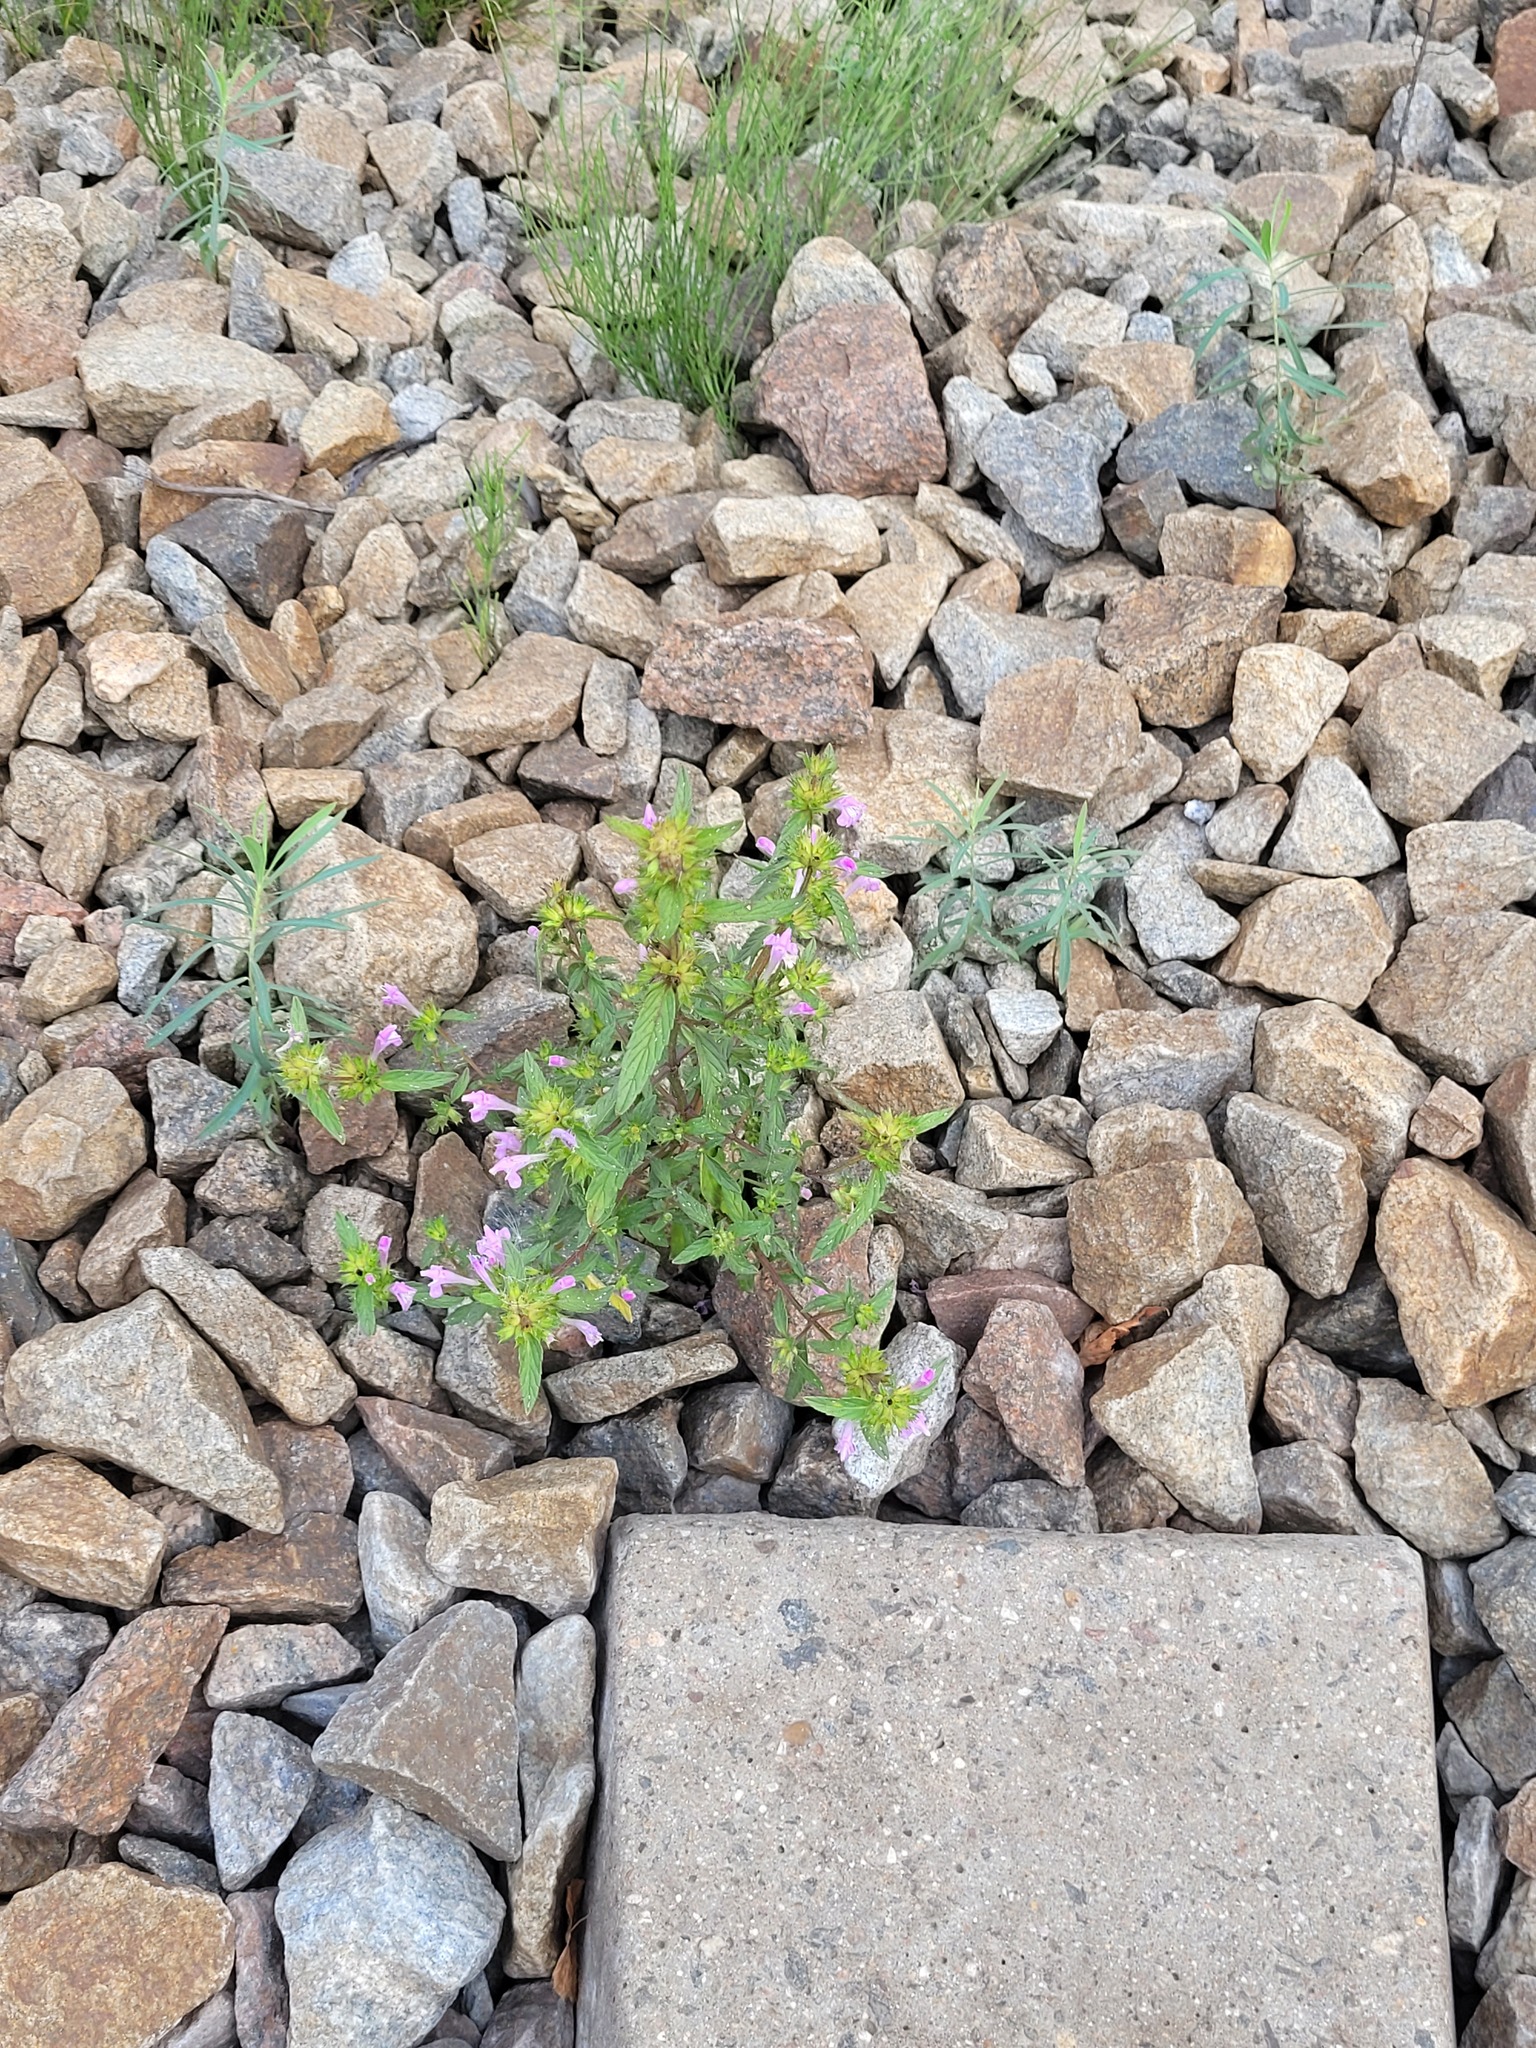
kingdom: Plantae
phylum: Tracheophyta
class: Magnoliopsida
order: Lamiales
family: Lamiaceae
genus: Galeopsis
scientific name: Galeopsis ladanum
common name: Broad-leaved hemp-nettle
